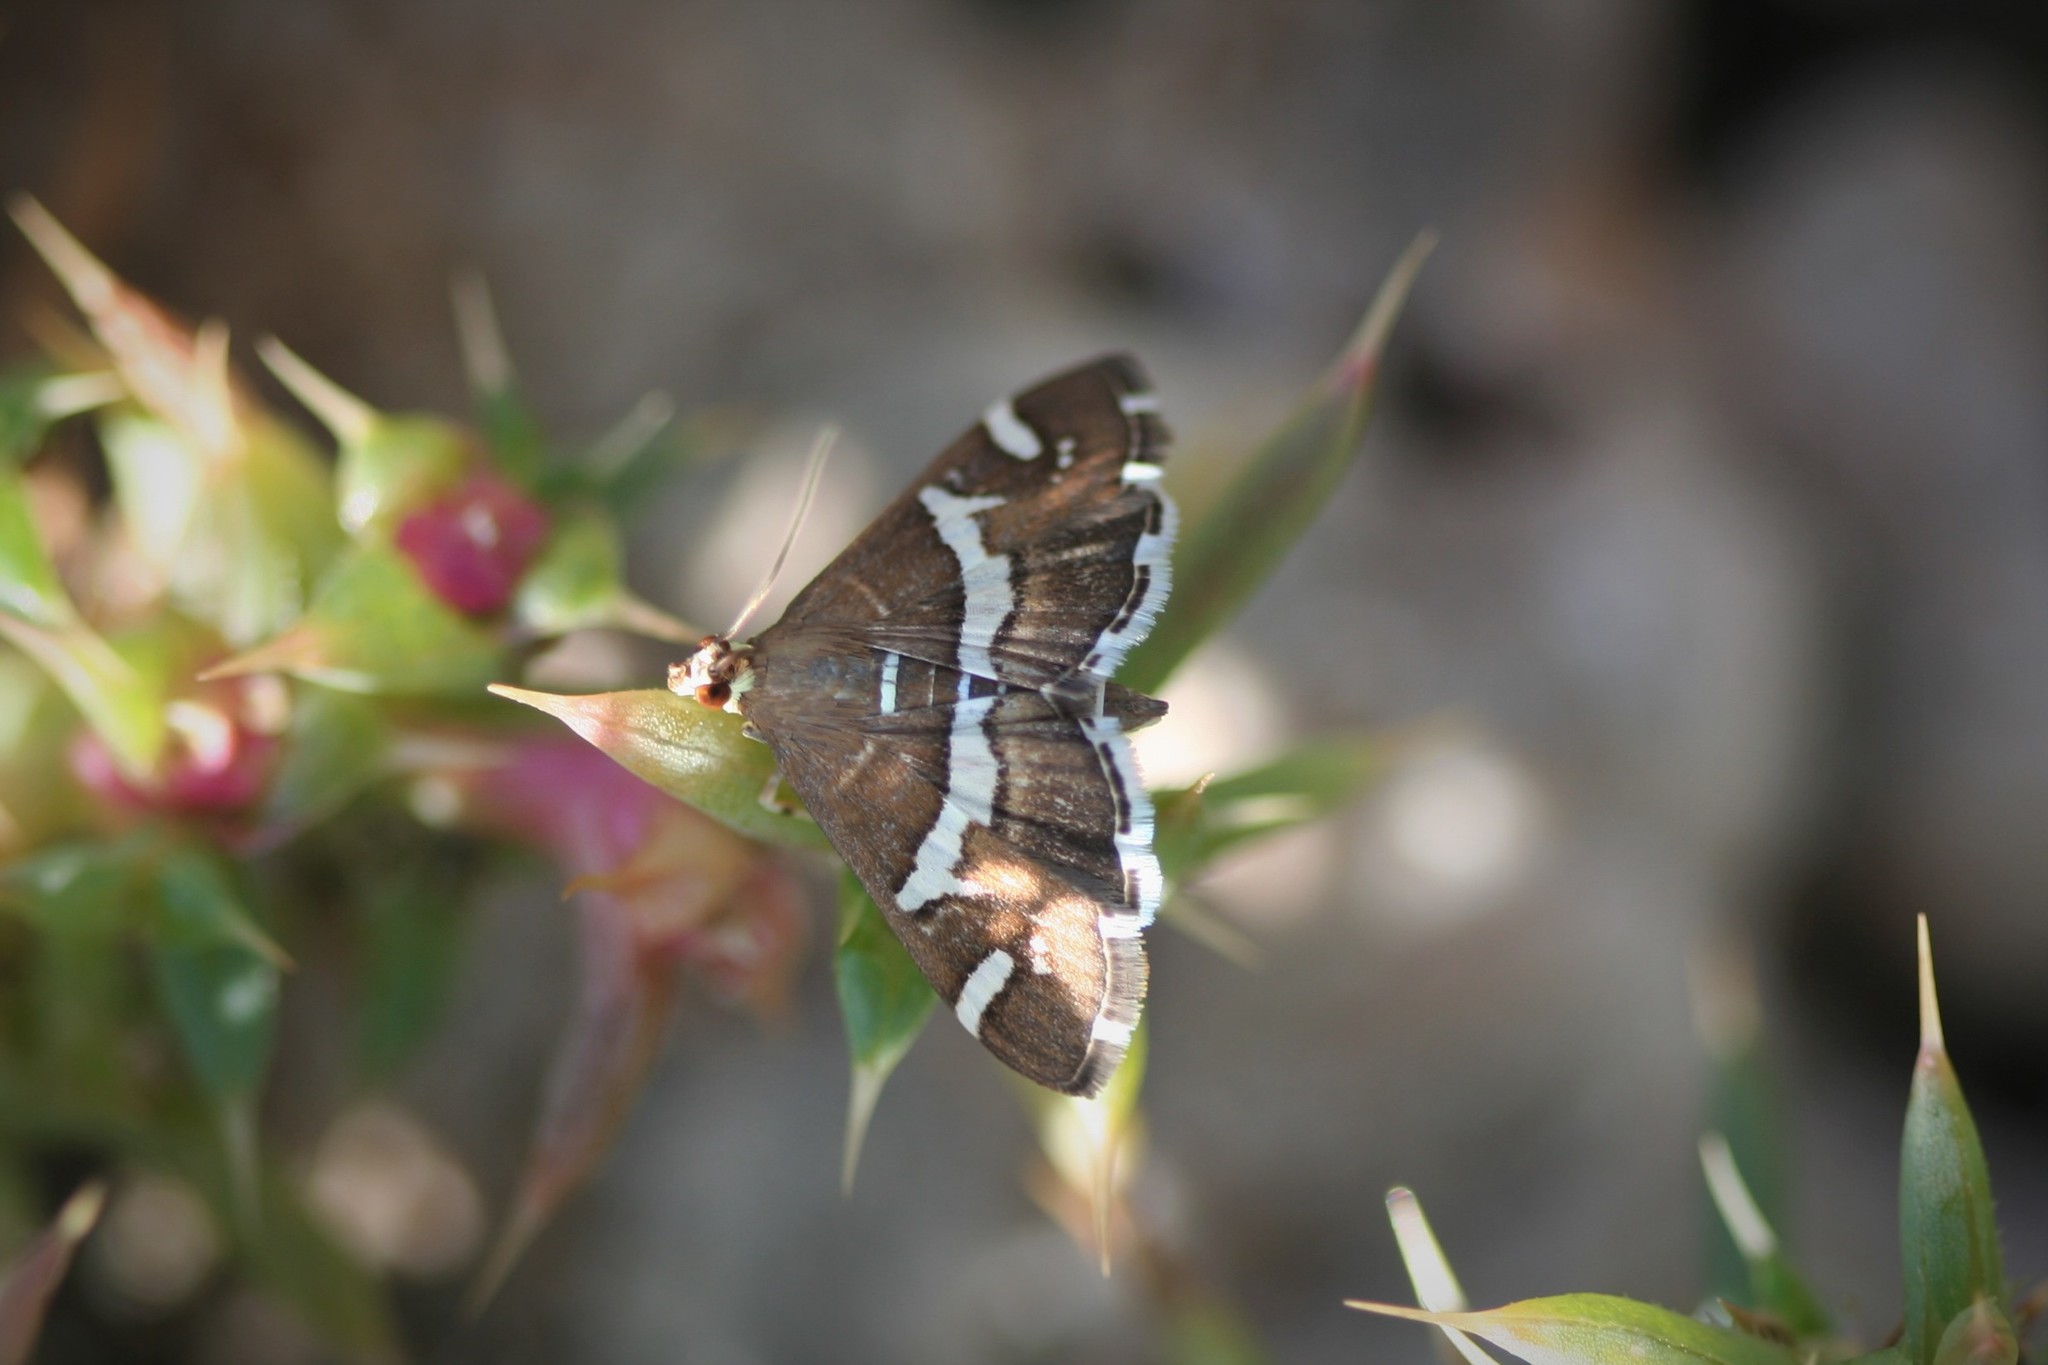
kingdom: Animalia
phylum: Arthropoda
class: Insecta
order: Lepidoptera
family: Crambidae
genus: Spoladea
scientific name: Spoladea recurvalis
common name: Beet webworm moth
